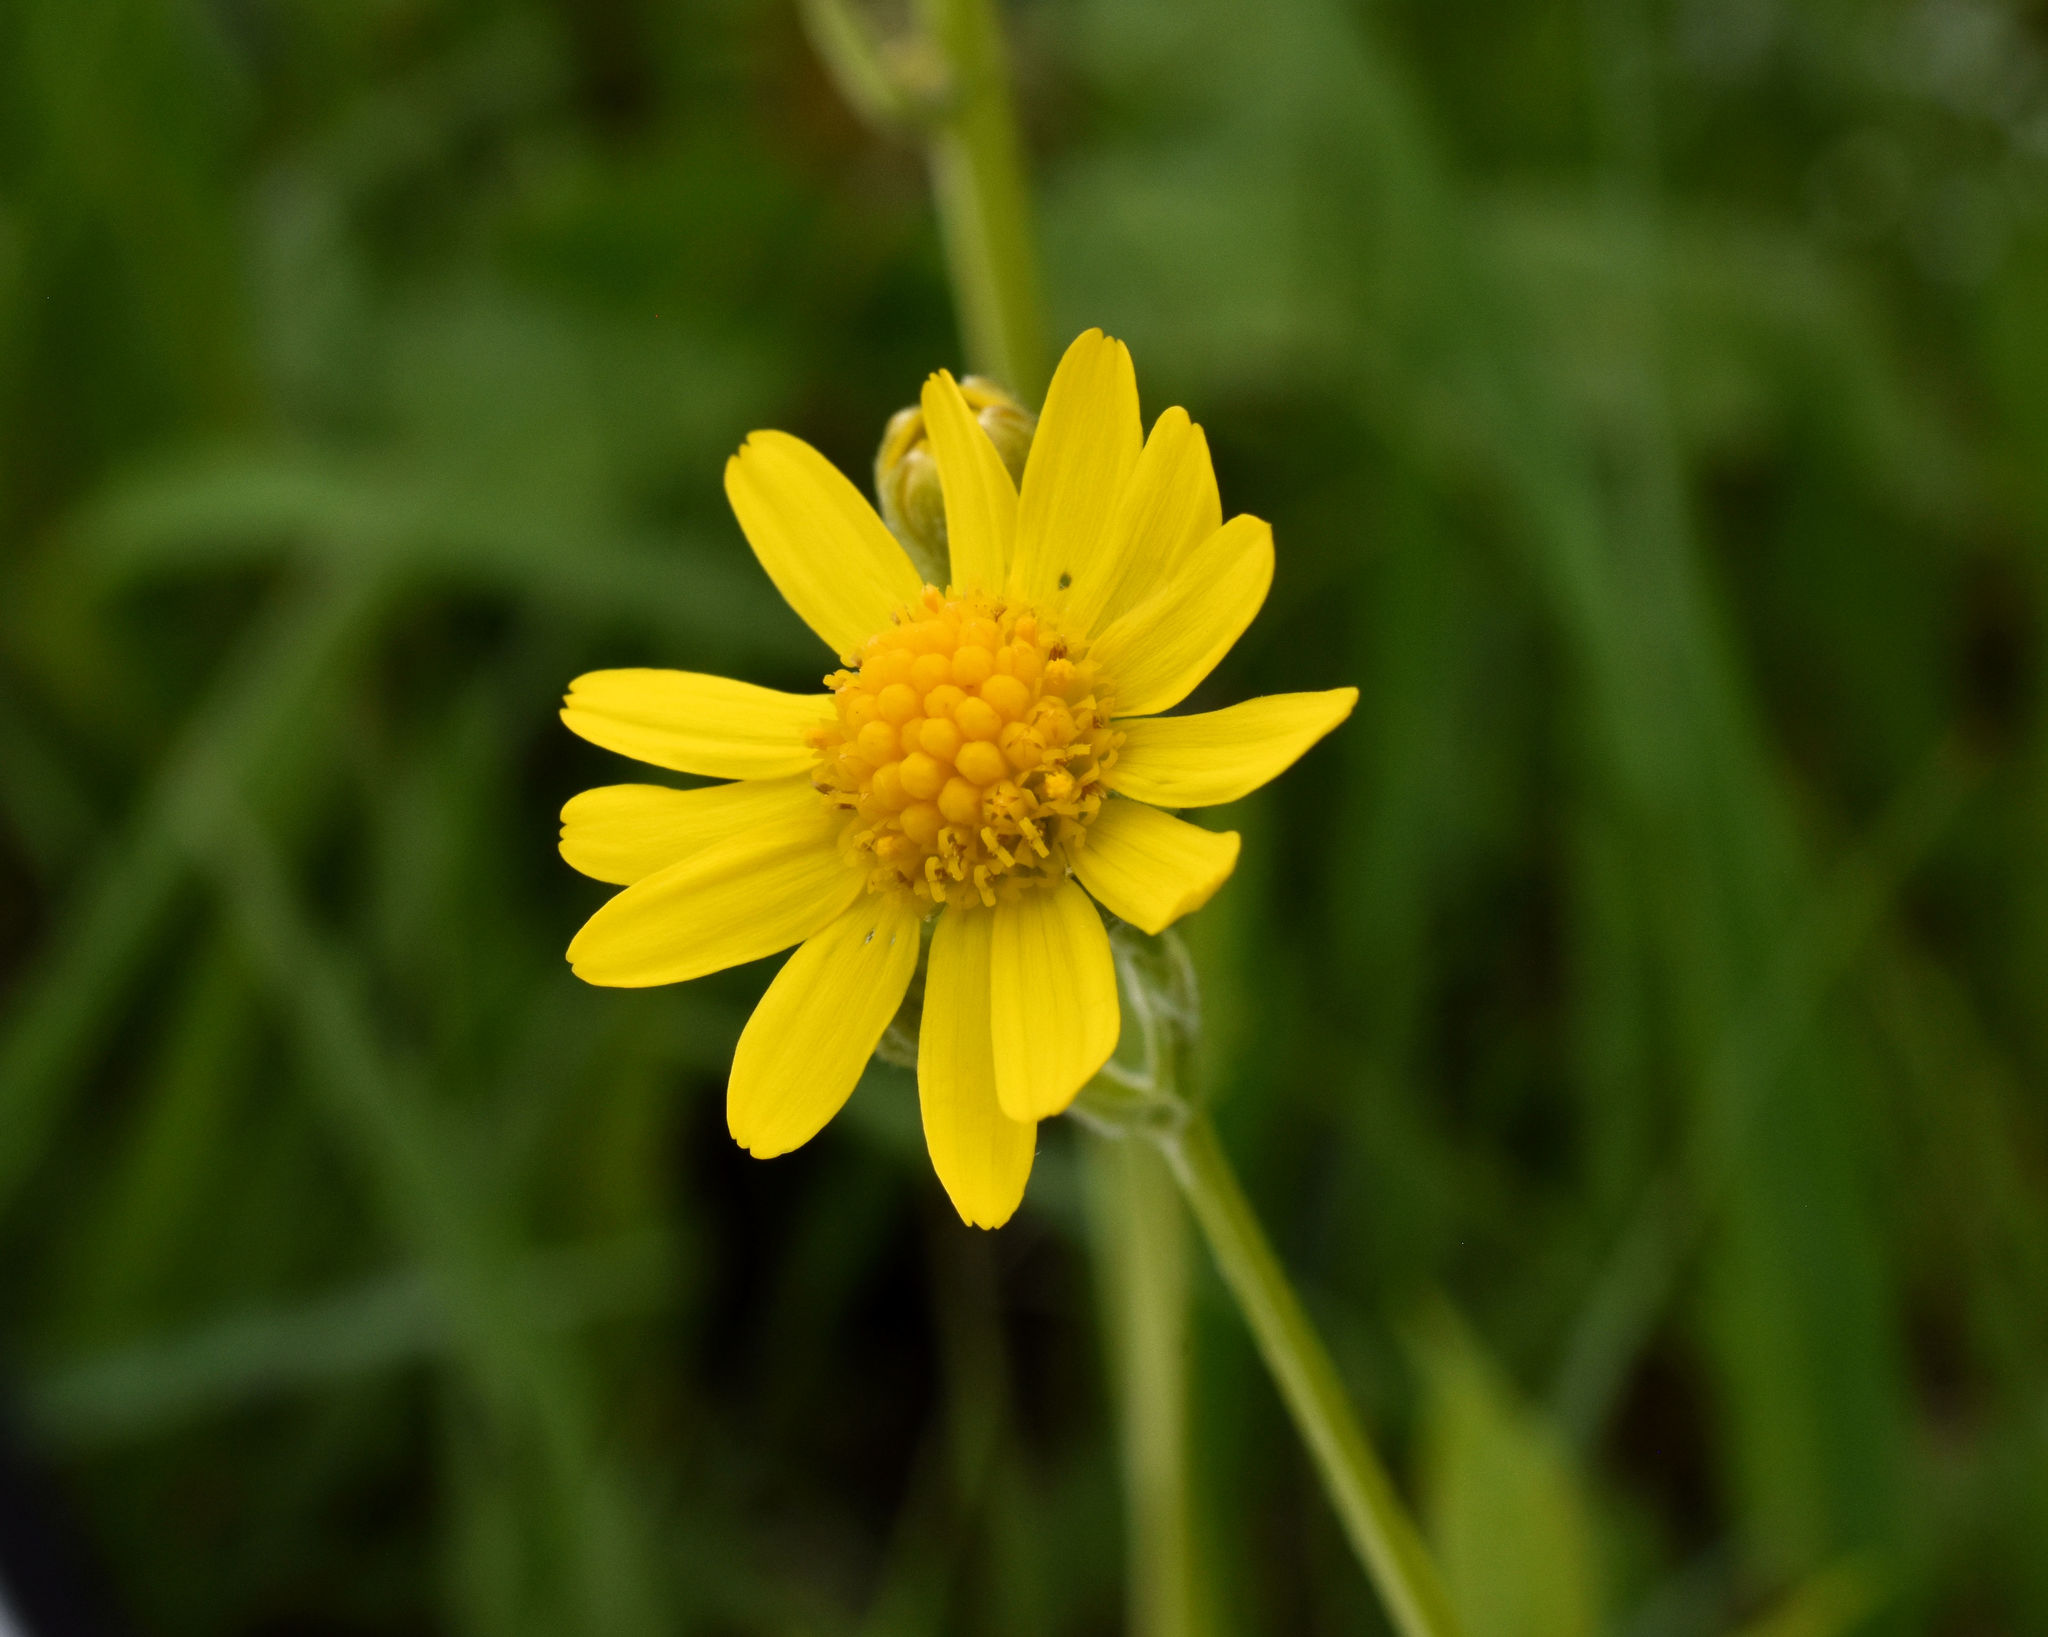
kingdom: Plantae
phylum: Tracheophyta
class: Magnoliopsida
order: Asterales
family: Asteraceae
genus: Packera
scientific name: Packera paupercula
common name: Balsam groundsel
